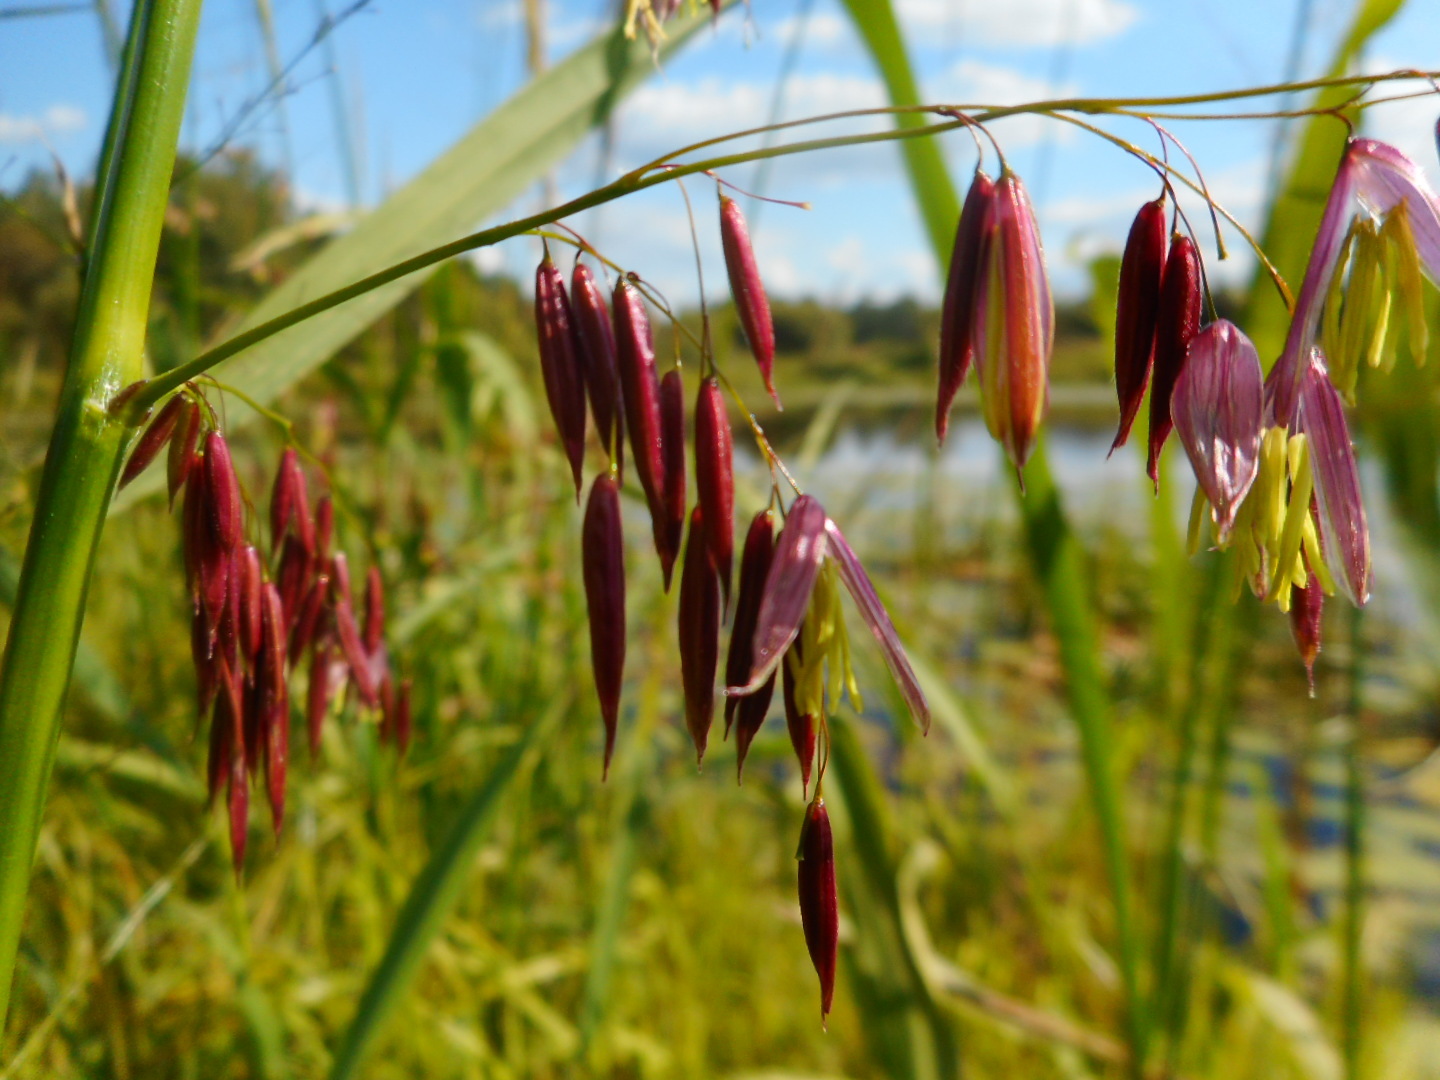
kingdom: Plantae
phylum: Tracheophyta
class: Liliopsida
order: Poales
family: Poaceae
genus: Zizania
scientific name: Zizania palustris
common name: Northern wild rice
